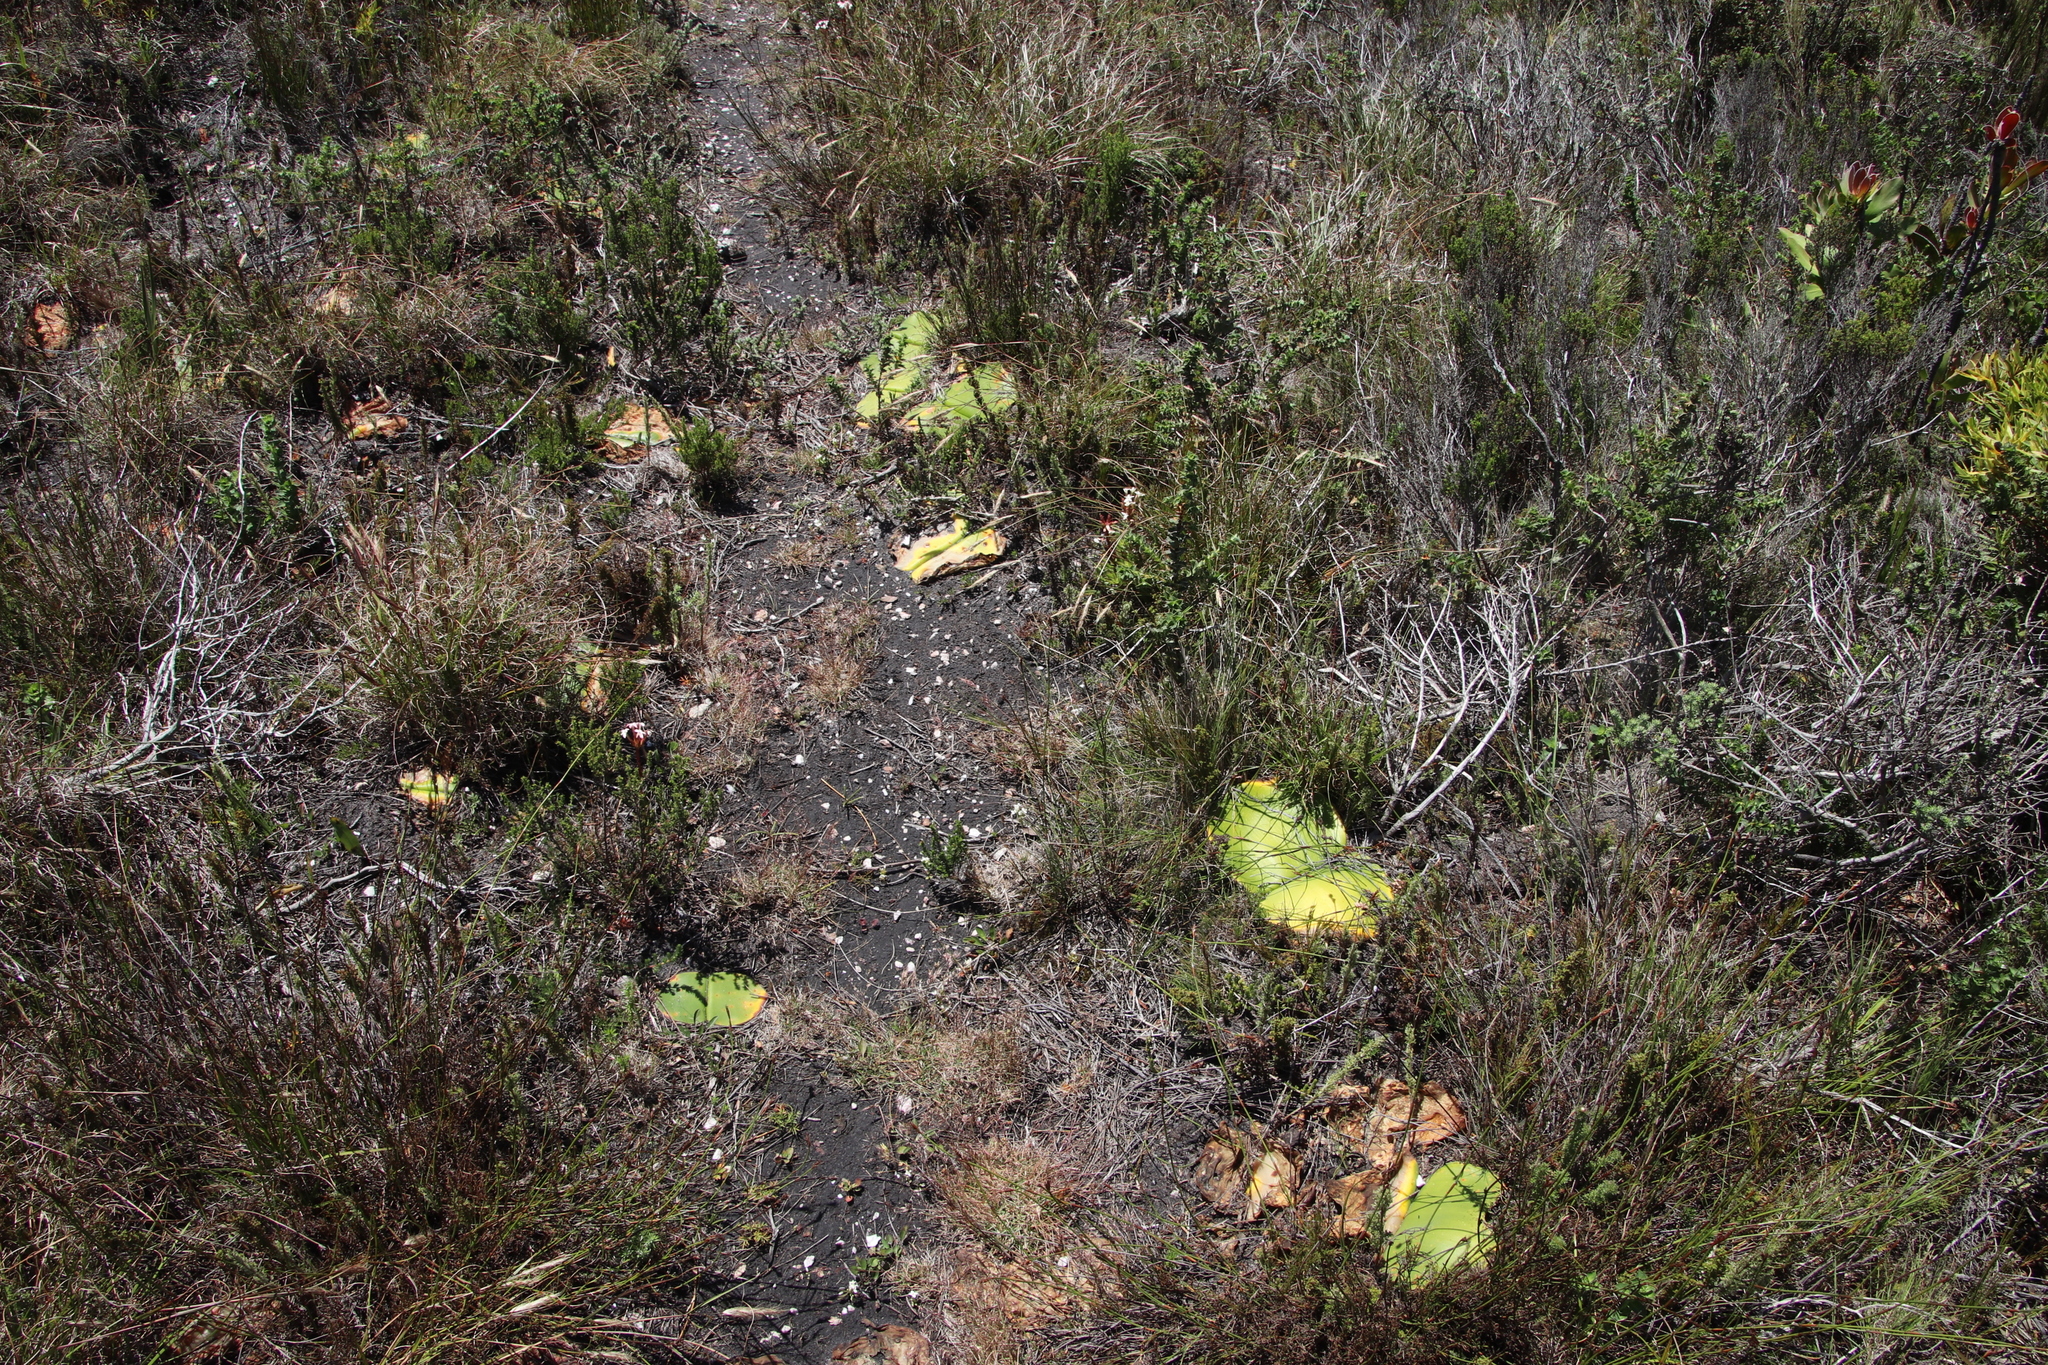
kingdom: Plantae
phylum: Tracheophyta
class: Liliopsida
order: Asparagales
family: Amaryllidaceae
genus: Haemanthus
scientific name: Haemanthus sanguineus
